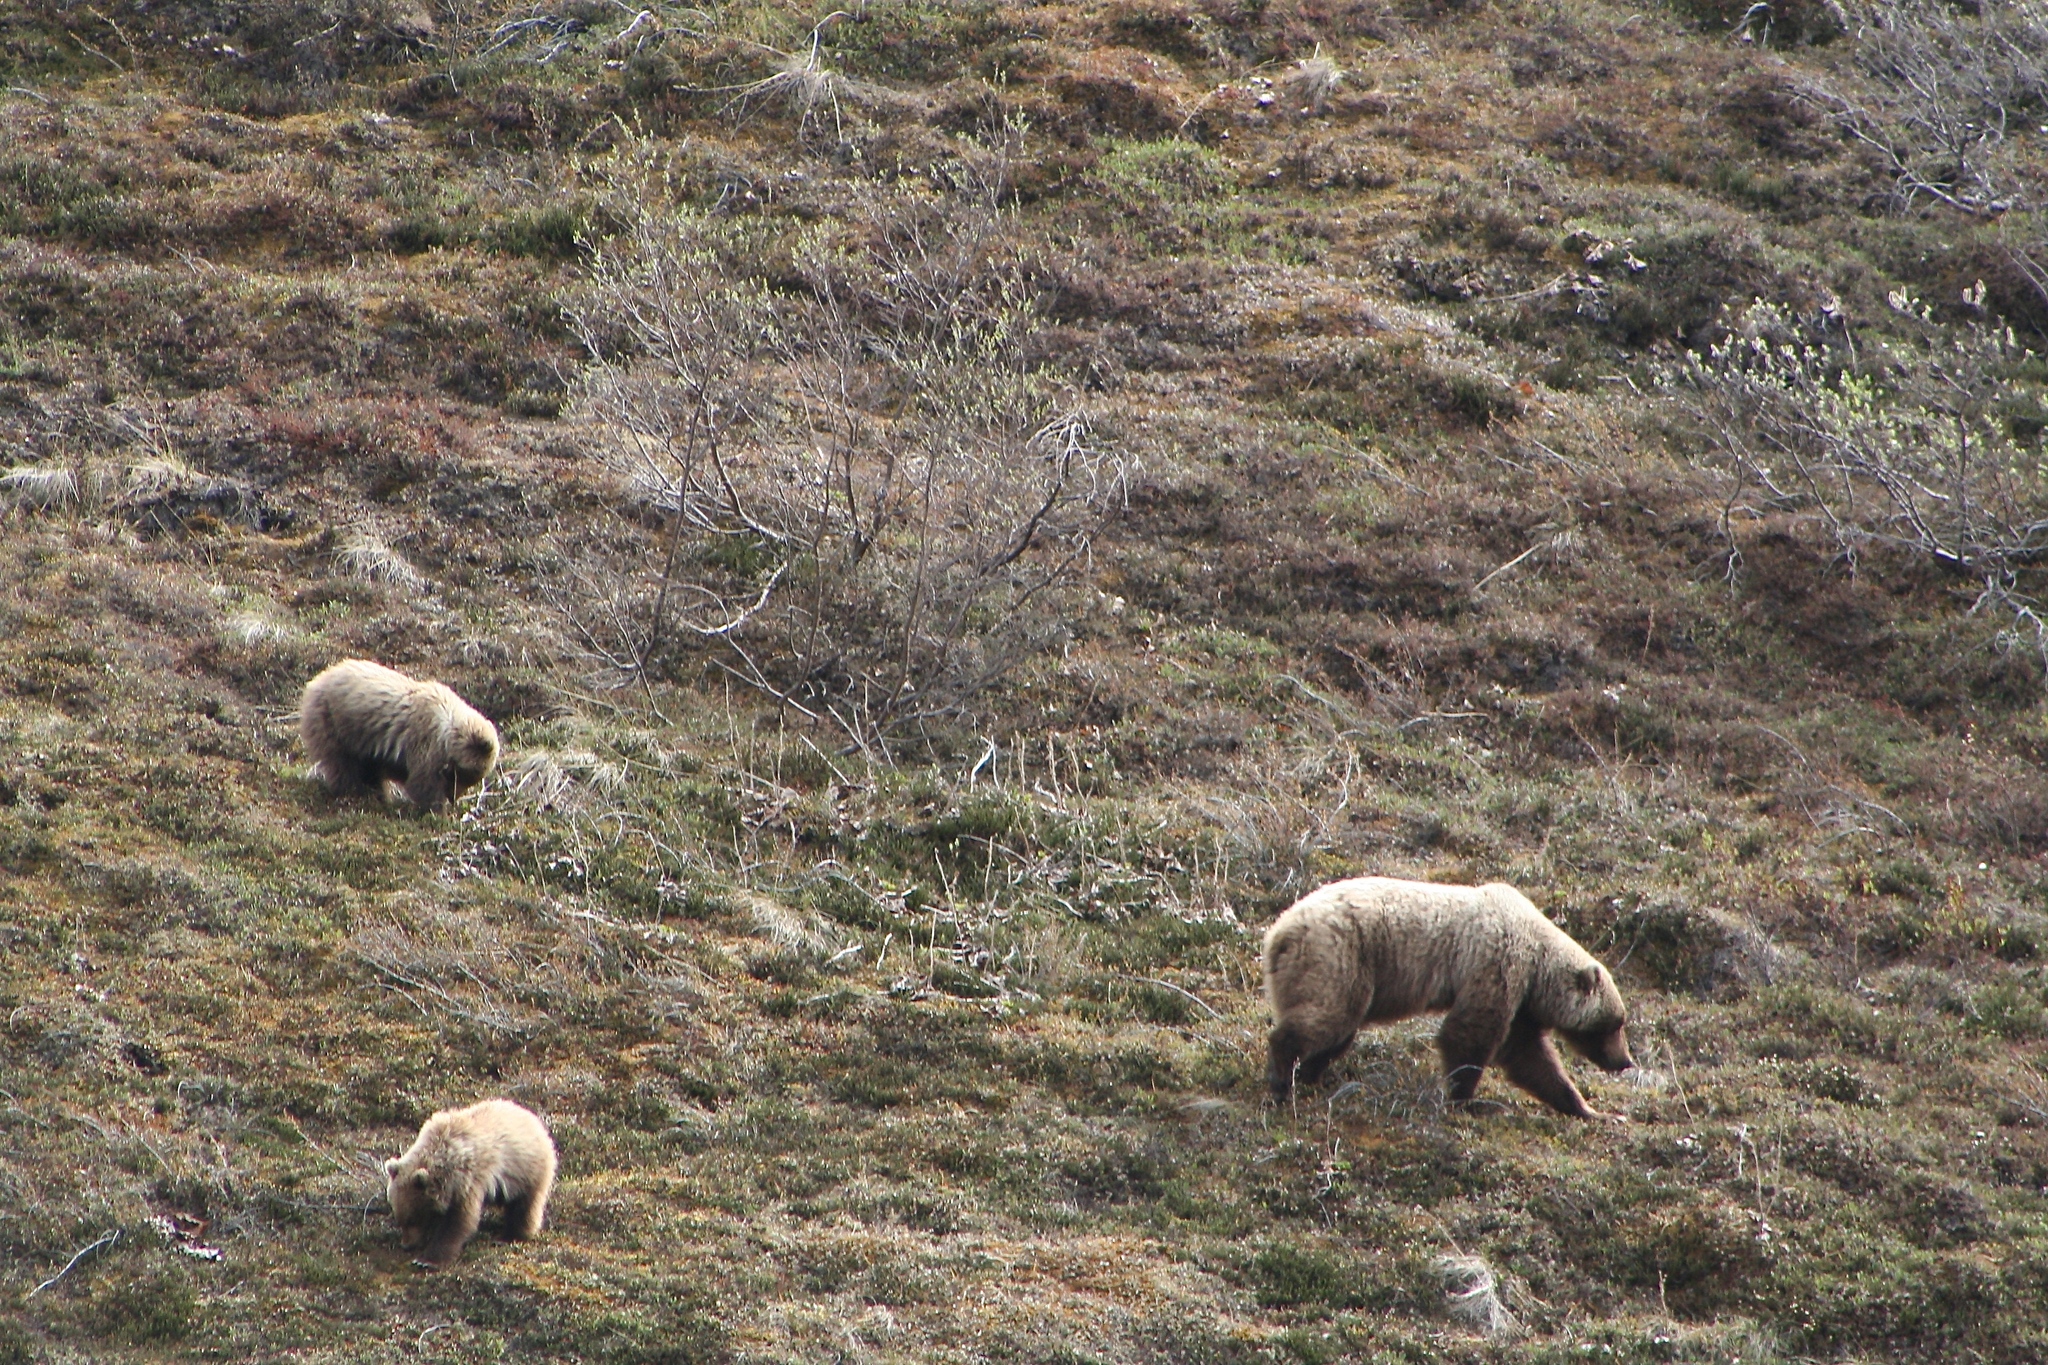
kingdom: Animalia
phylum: Chordata
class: Mammalia
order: Carnivora
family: Ursidae
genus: Ursus
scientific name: Ursus arctos
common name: Brown bear
